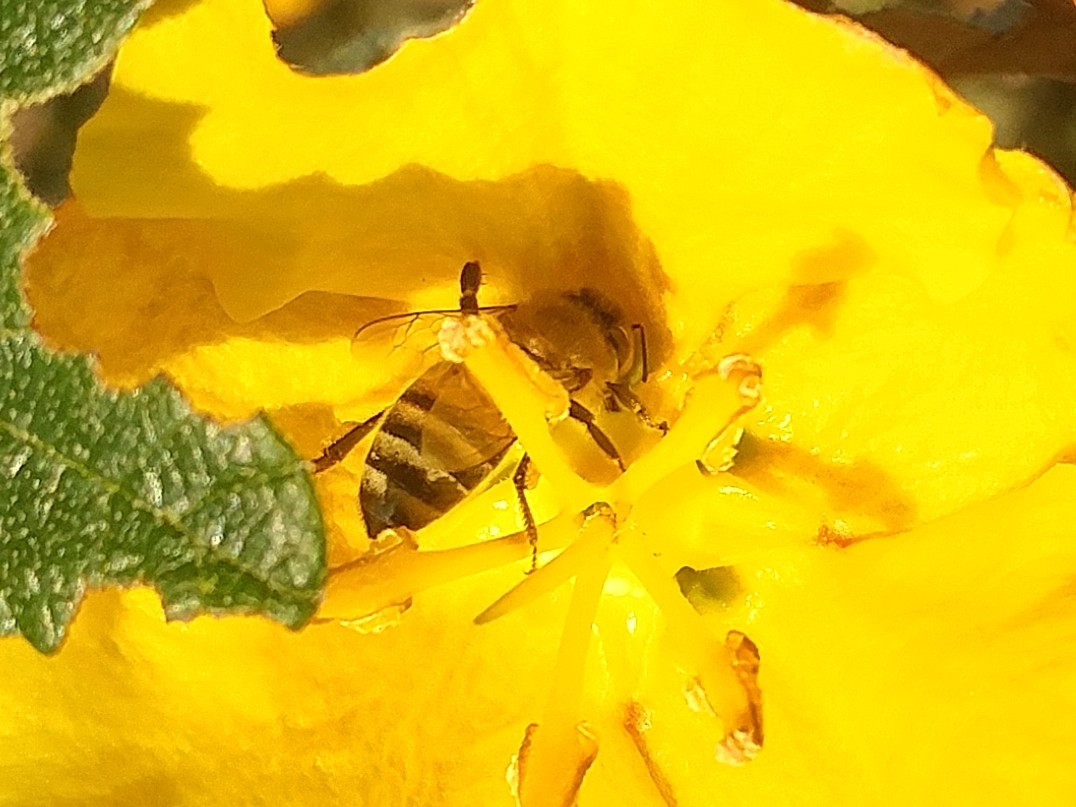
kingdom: Animalia
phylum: Arthropoda
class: Insecta
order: Hymenoptera
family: Apidae
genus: Apis
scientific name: Apis mellifera
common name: Honey bee
